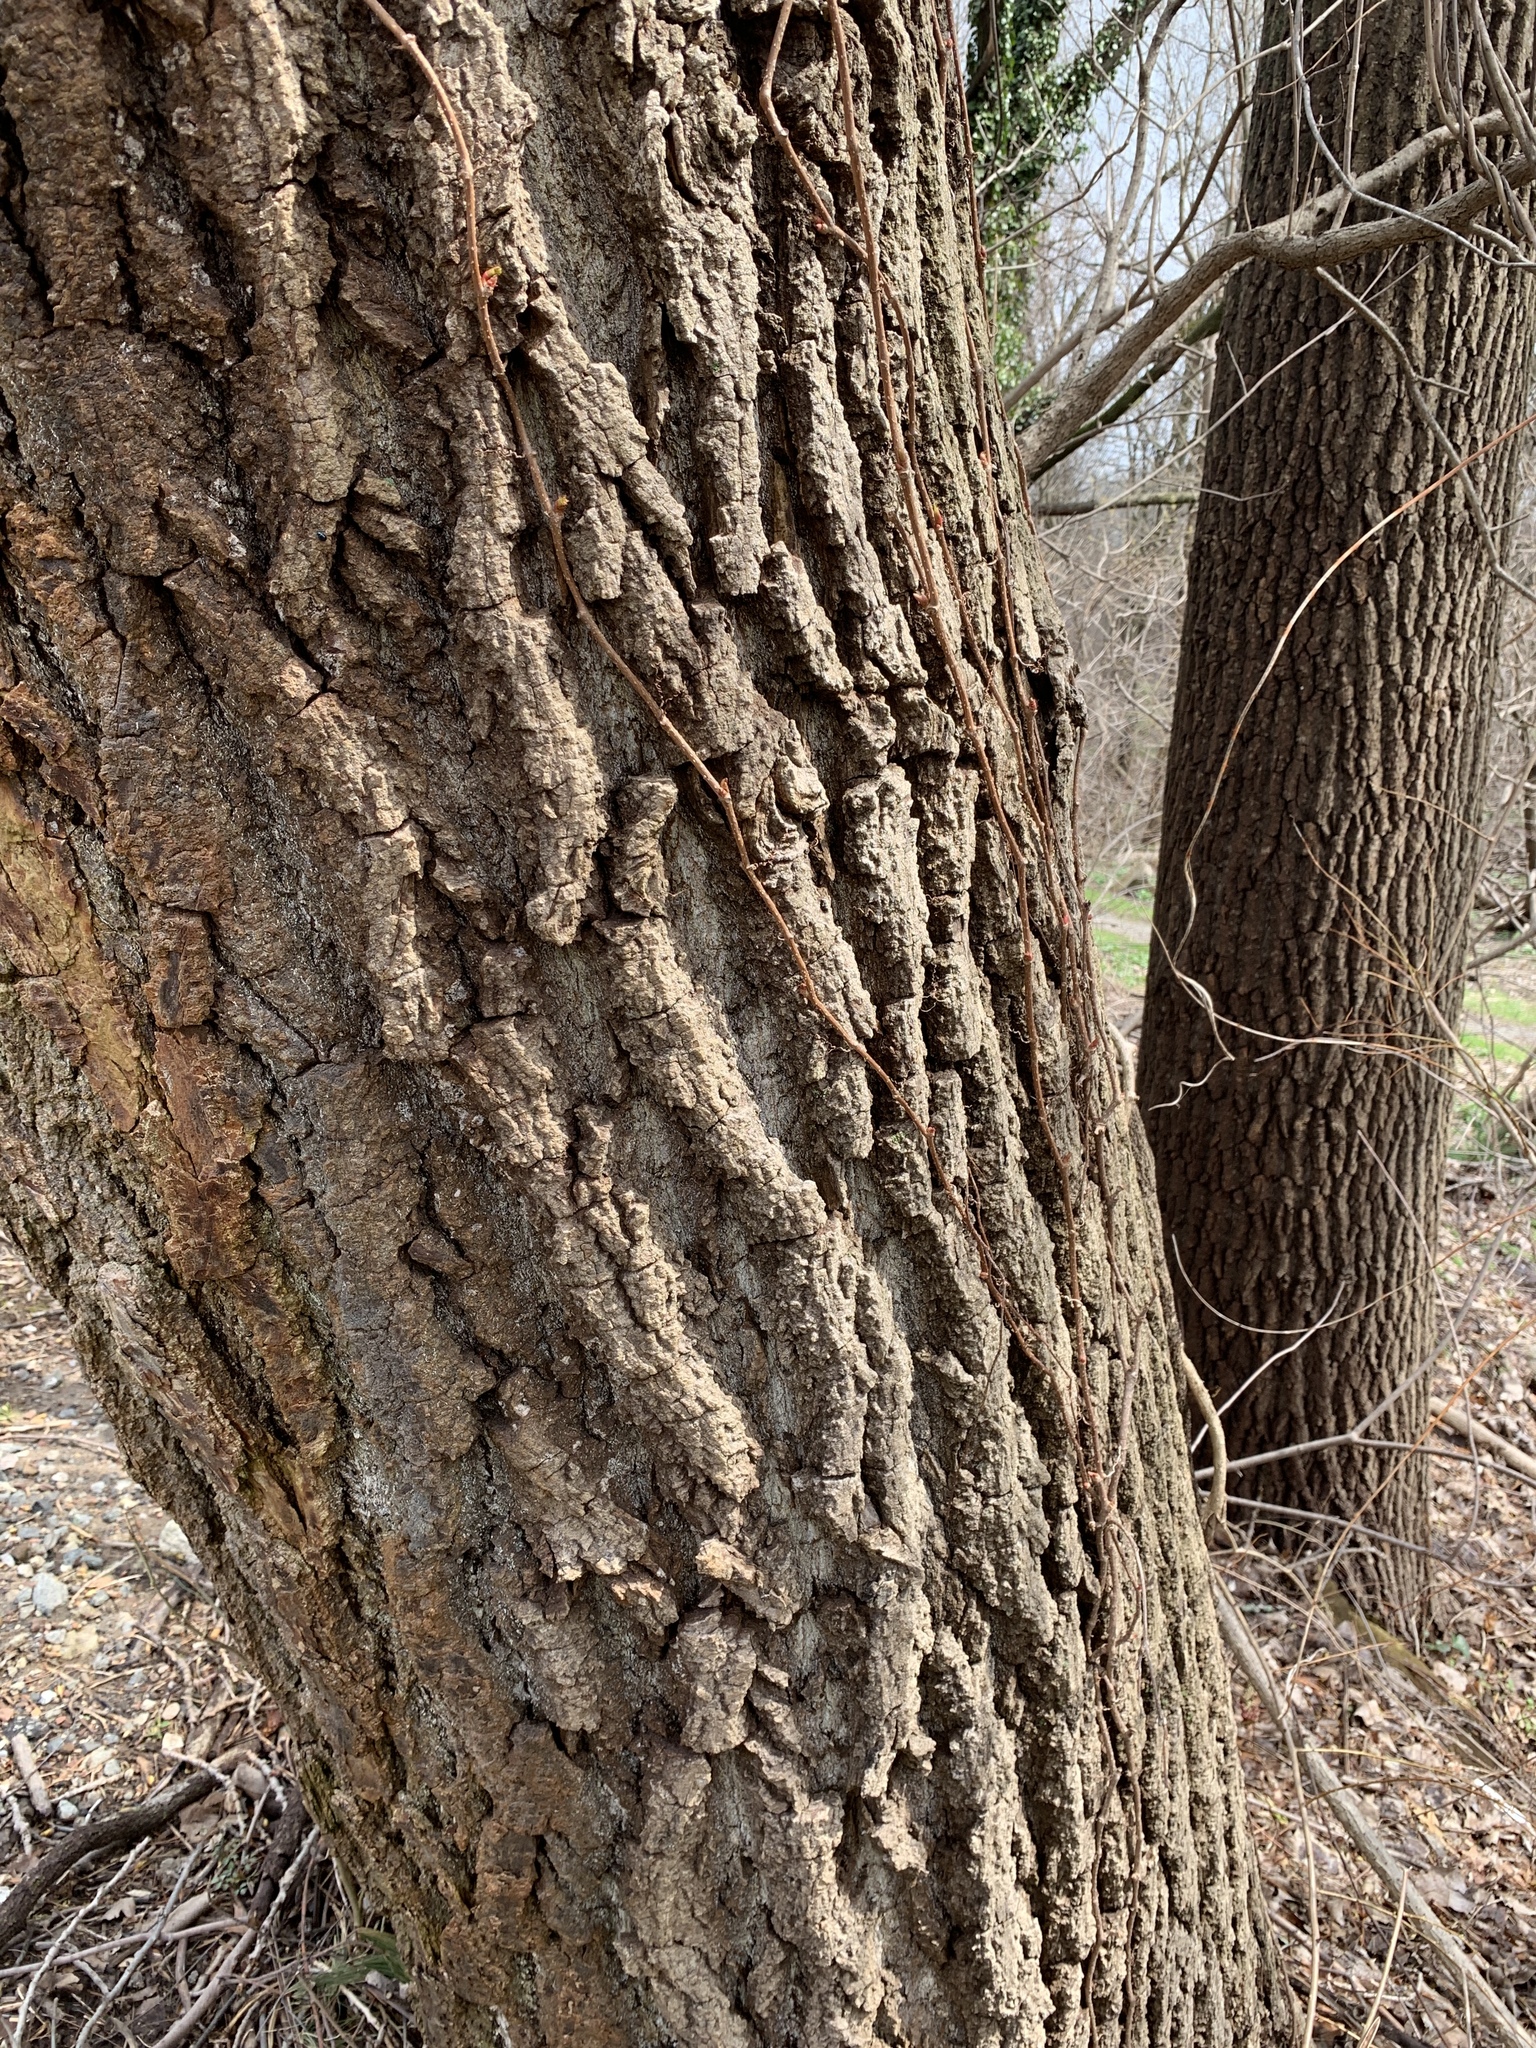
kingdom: Plantae
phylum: Tracheophyta
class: Magnoliopsida
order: Malpighiales
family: Salicaceae
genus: Populus
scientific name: Populus deltoides
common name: Eastern cottonwood
